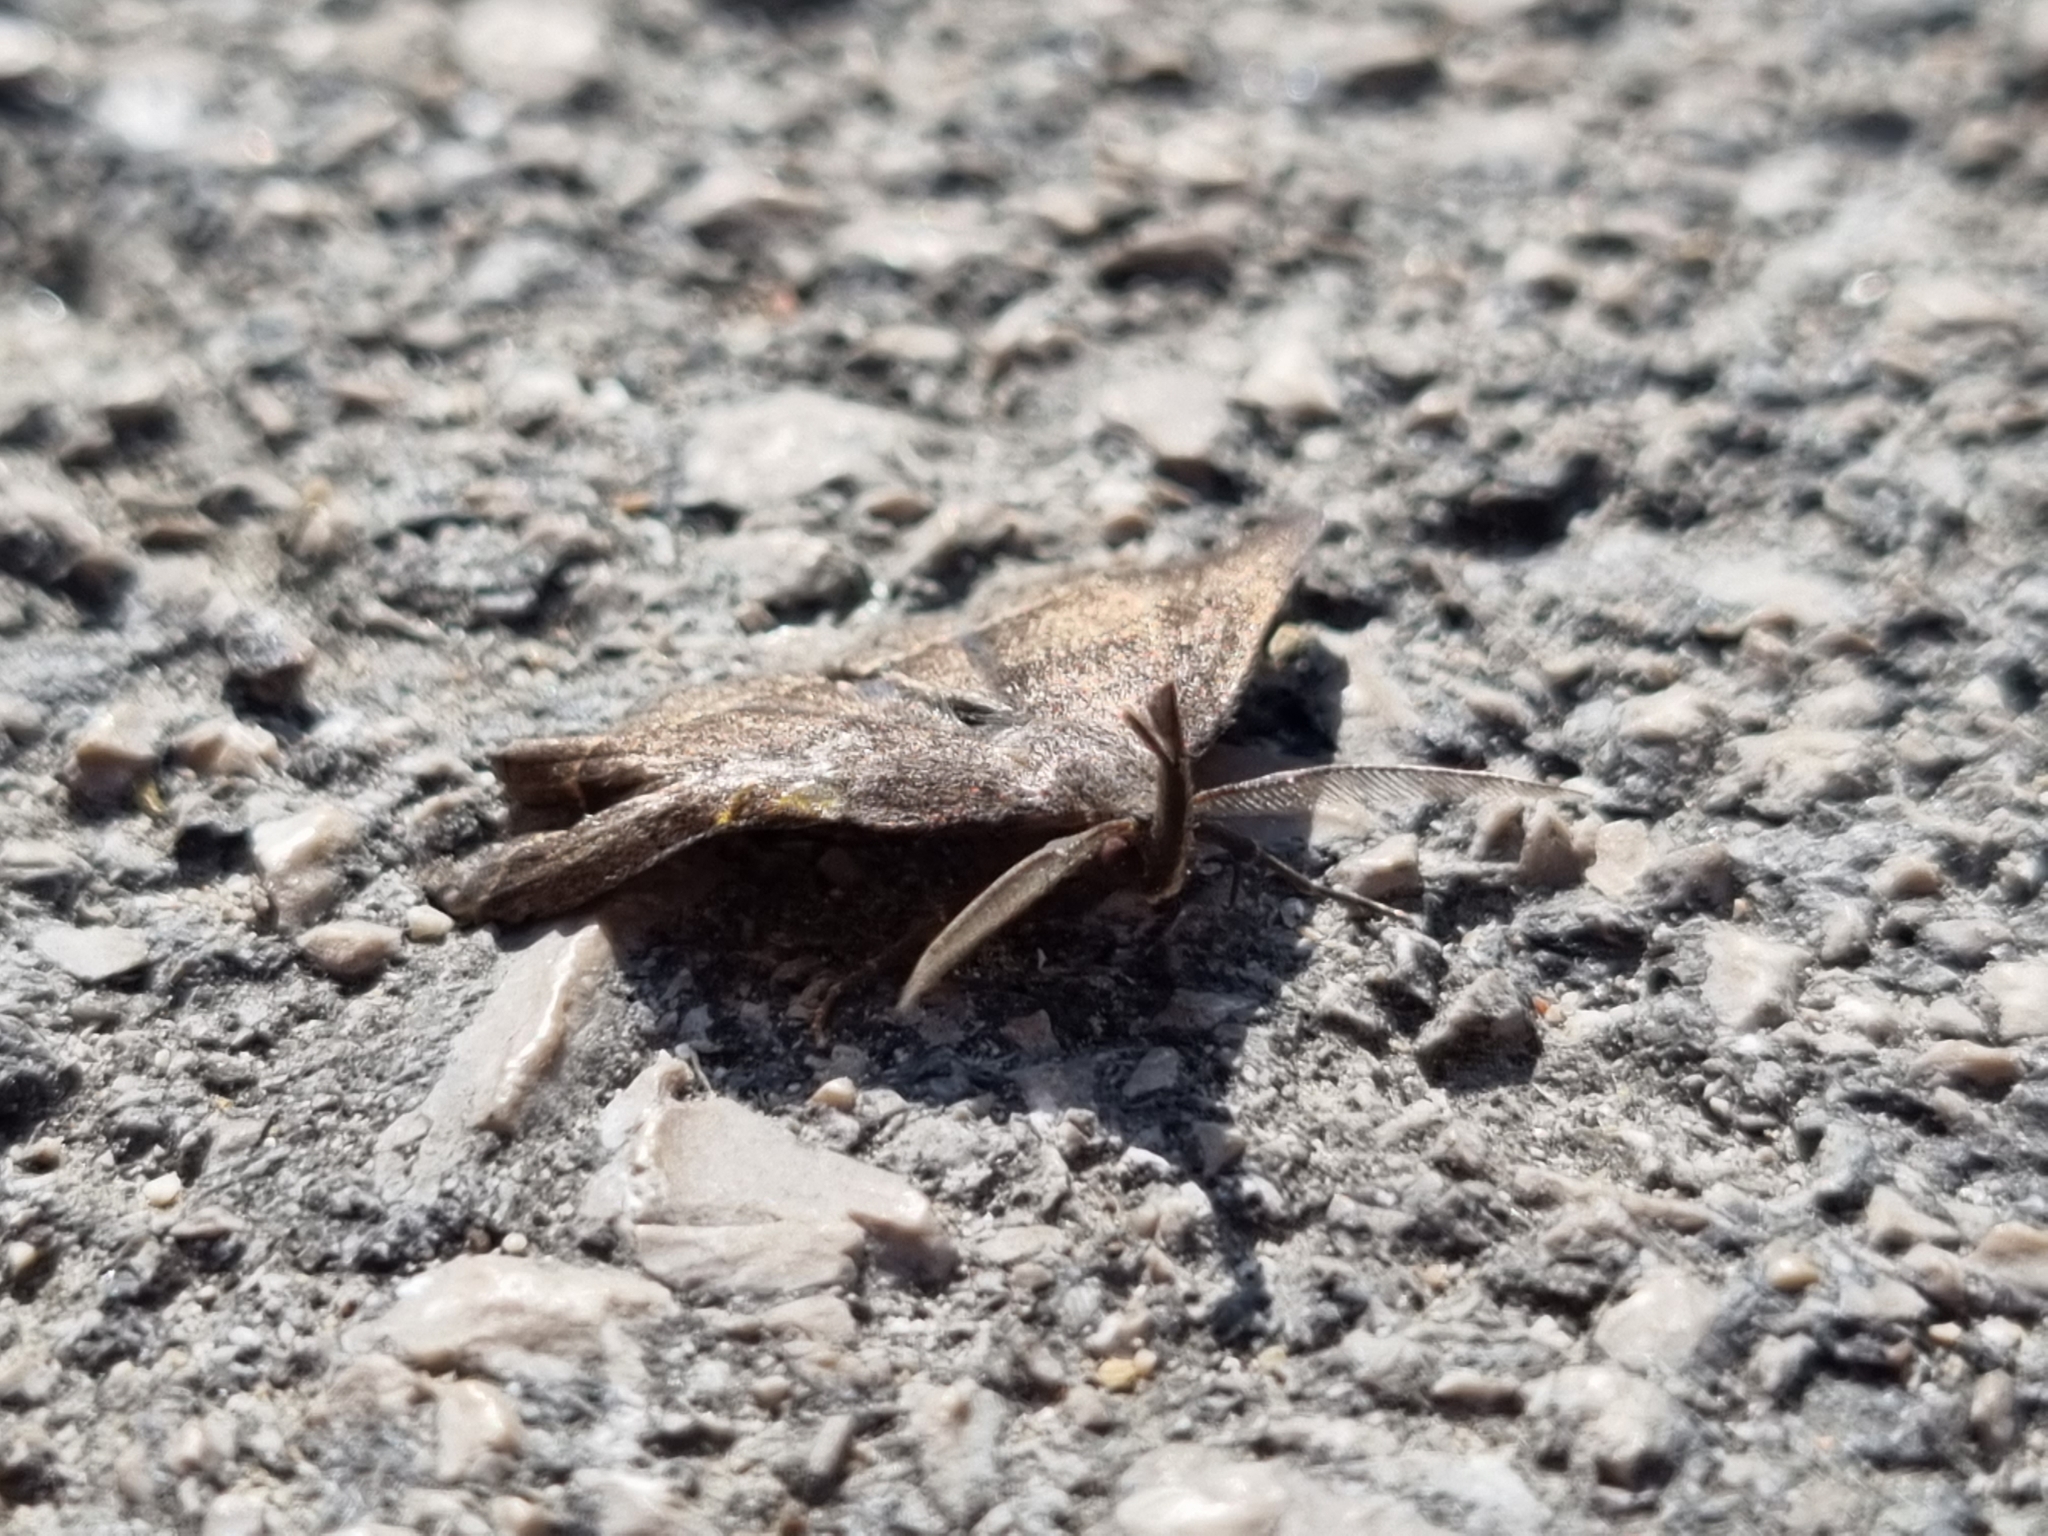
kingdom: Animalia
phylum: Arthropoda
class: Insecta
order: Lepidoptera
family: Erebidae
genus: Pechipogo
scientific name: Pechipogo plumigeralis
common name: Plumed fan-foot
